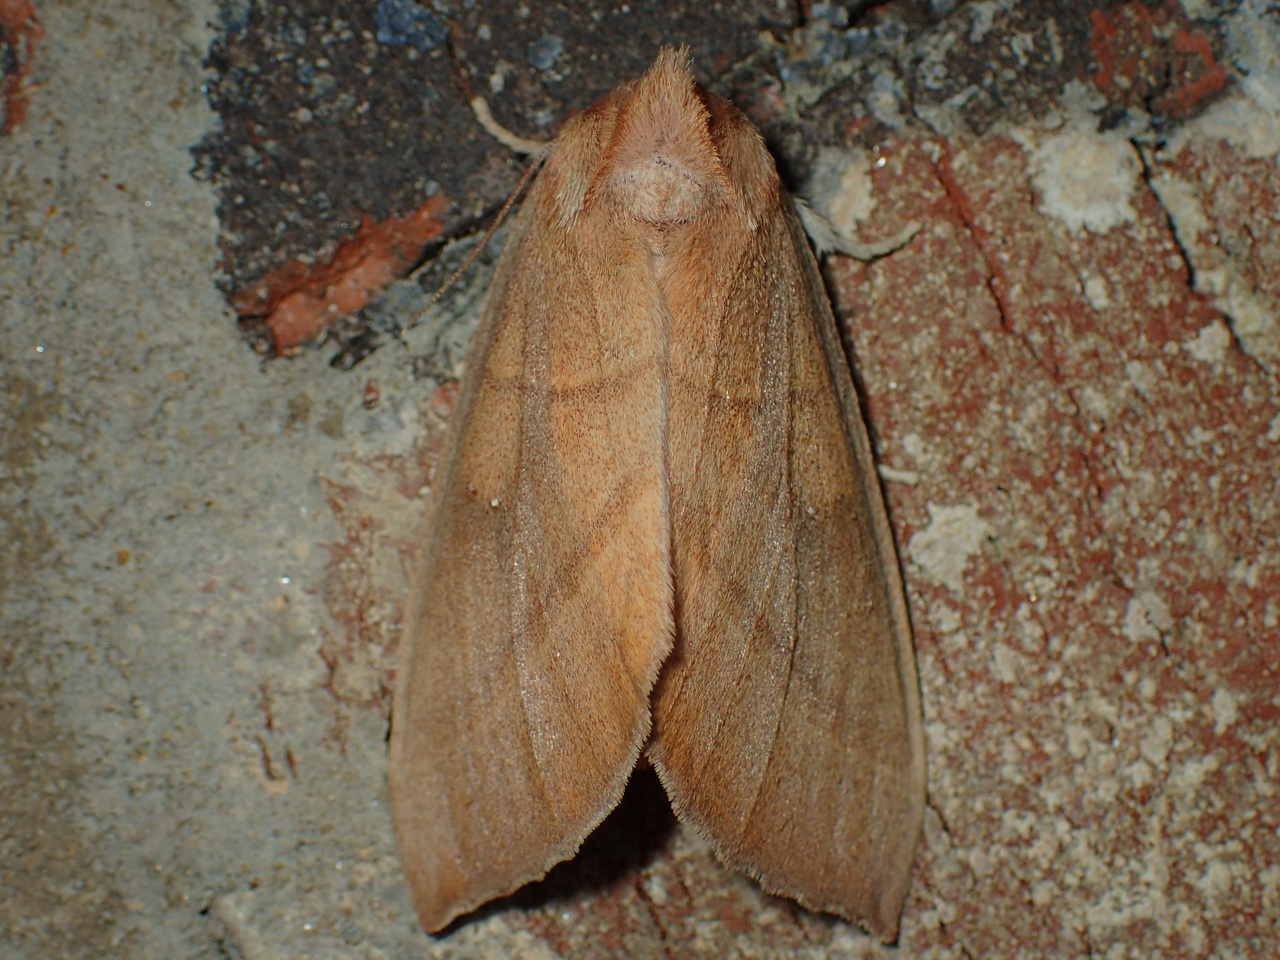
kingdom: Animalia
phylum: Arthropoda
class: Insecta
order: Lepidoptera
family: Notodontidae
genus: Nadata
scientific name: Nadata gibbosa
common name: White-dotted prominent
